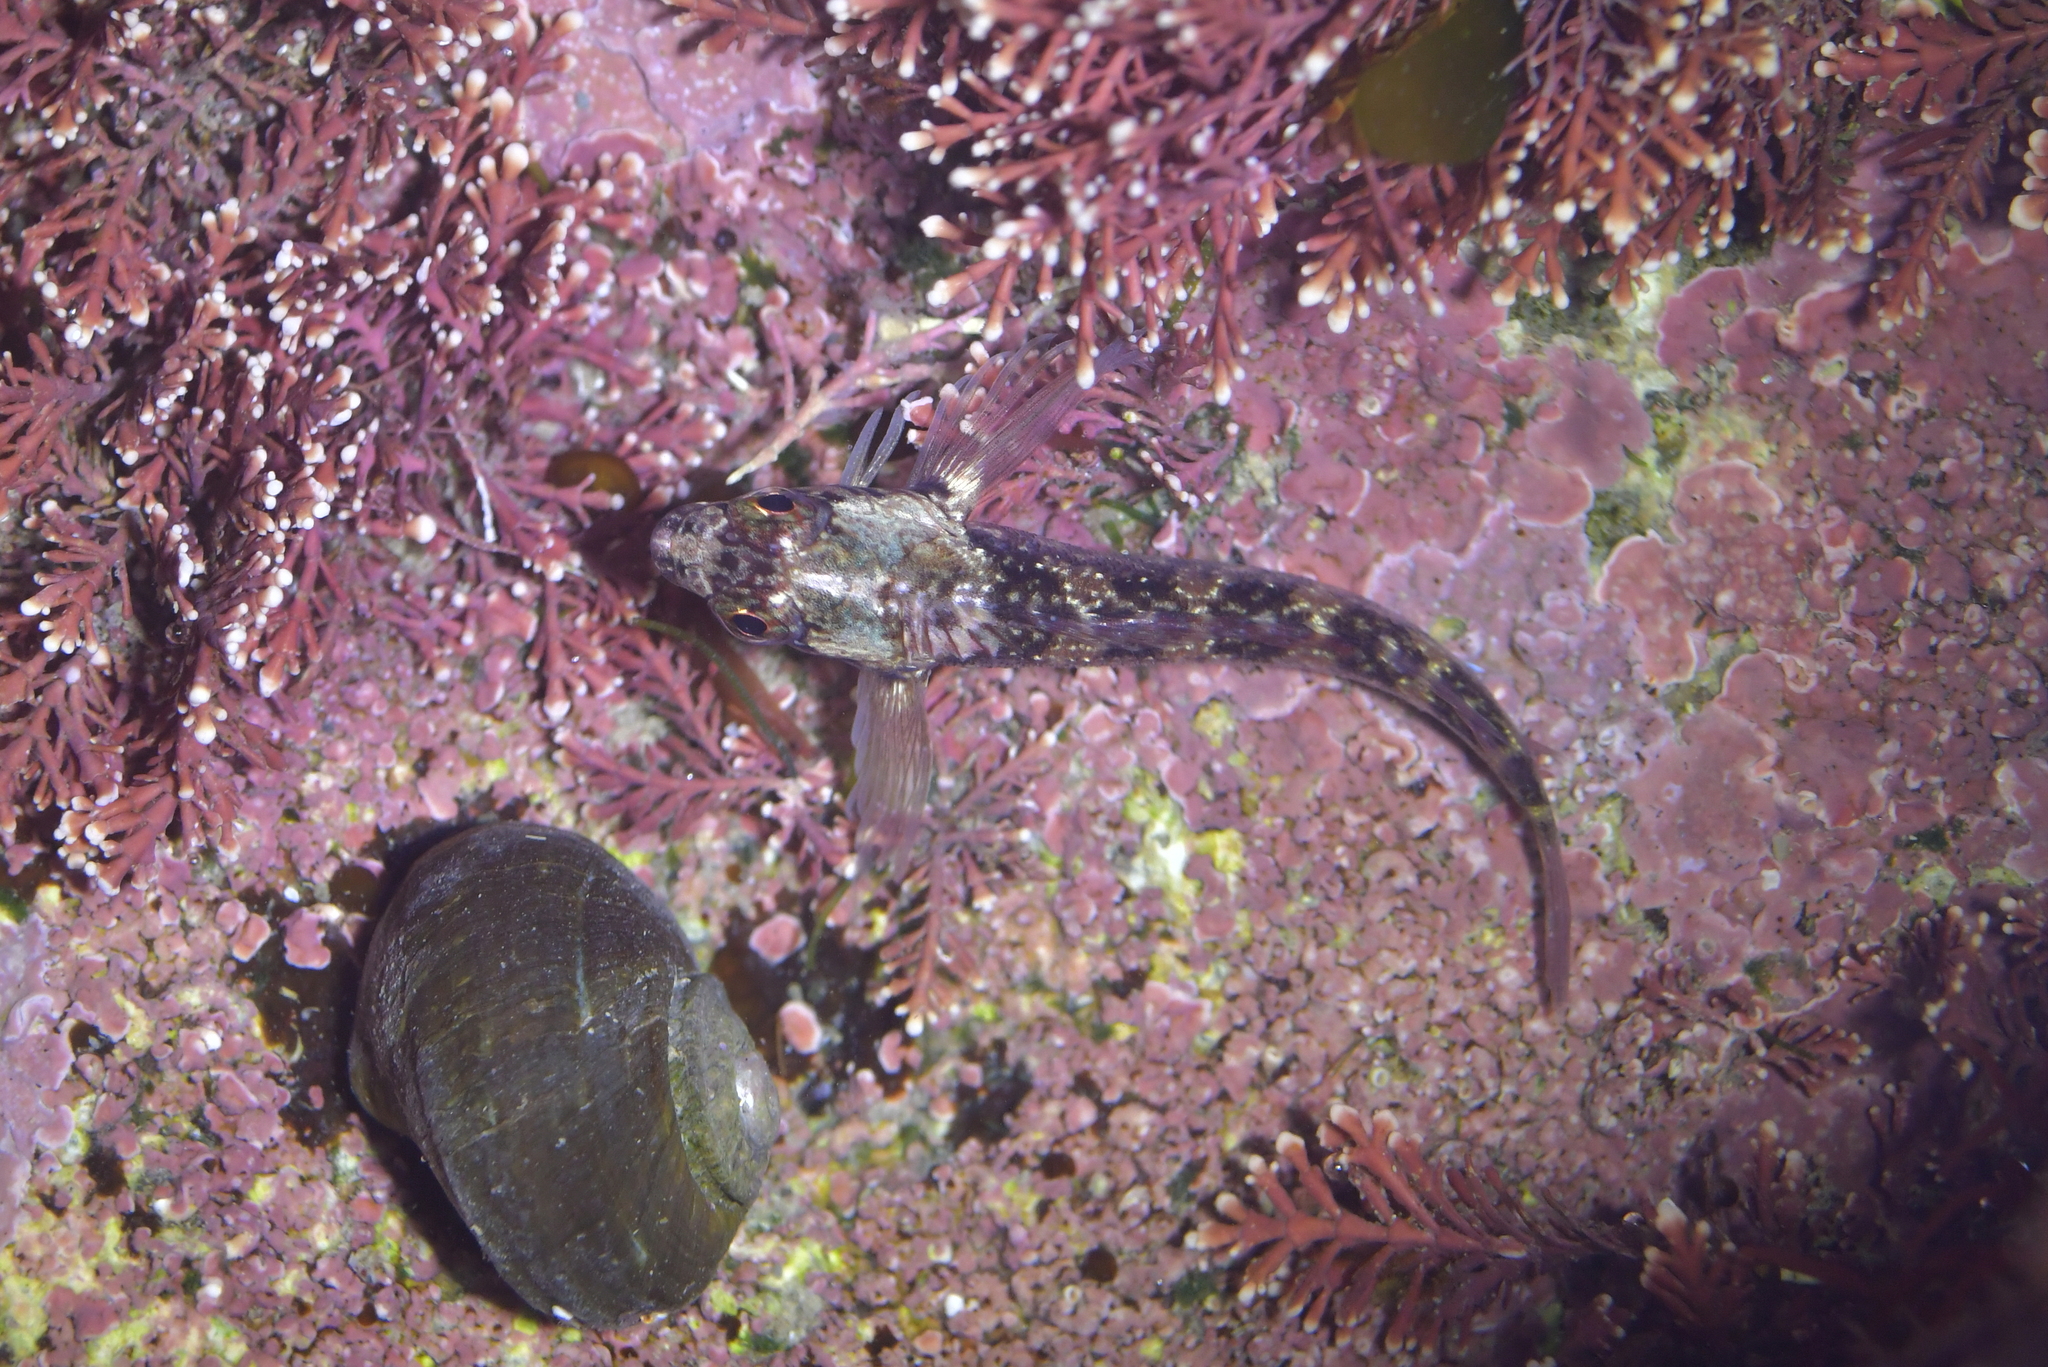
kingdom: Animalia
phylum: Chordata
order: Perciformes
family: Tripterygiidae
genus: Forsterygion
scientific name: Forsterygion lapillum
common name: Common triplefin
